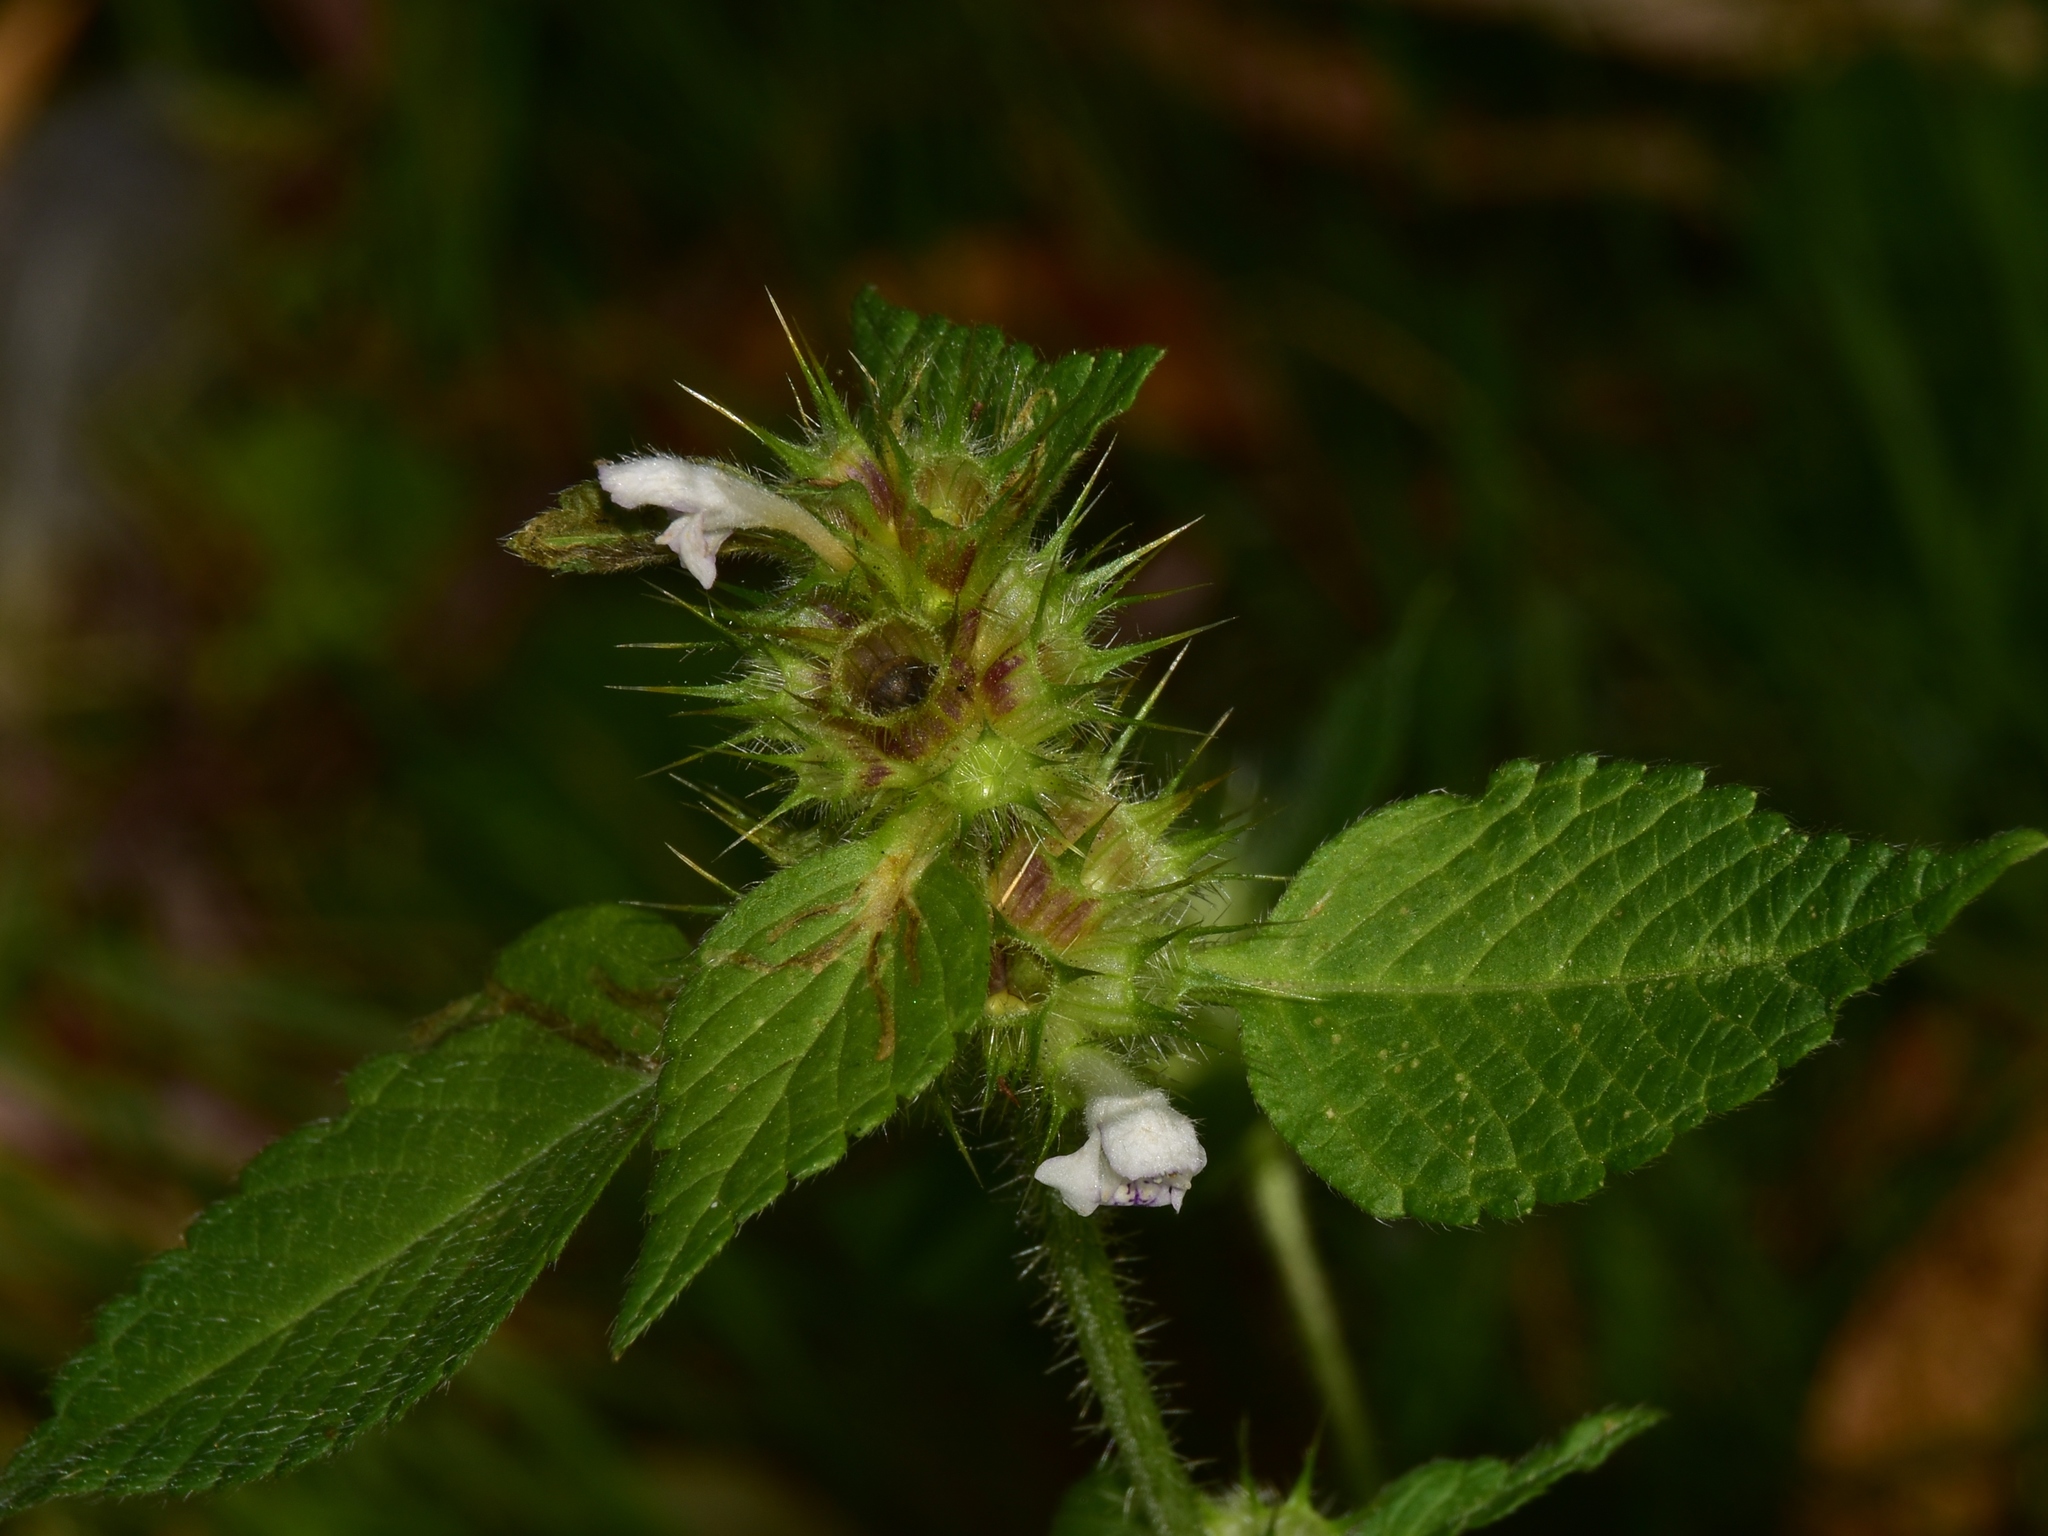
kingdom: Plantae
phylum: Tracheophyta
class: Magnoliopsida
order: Lamiales
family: Lamiaceae
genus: Galeopsis
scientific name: Galeopsis tetrahit
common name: Common hemp-nettle
